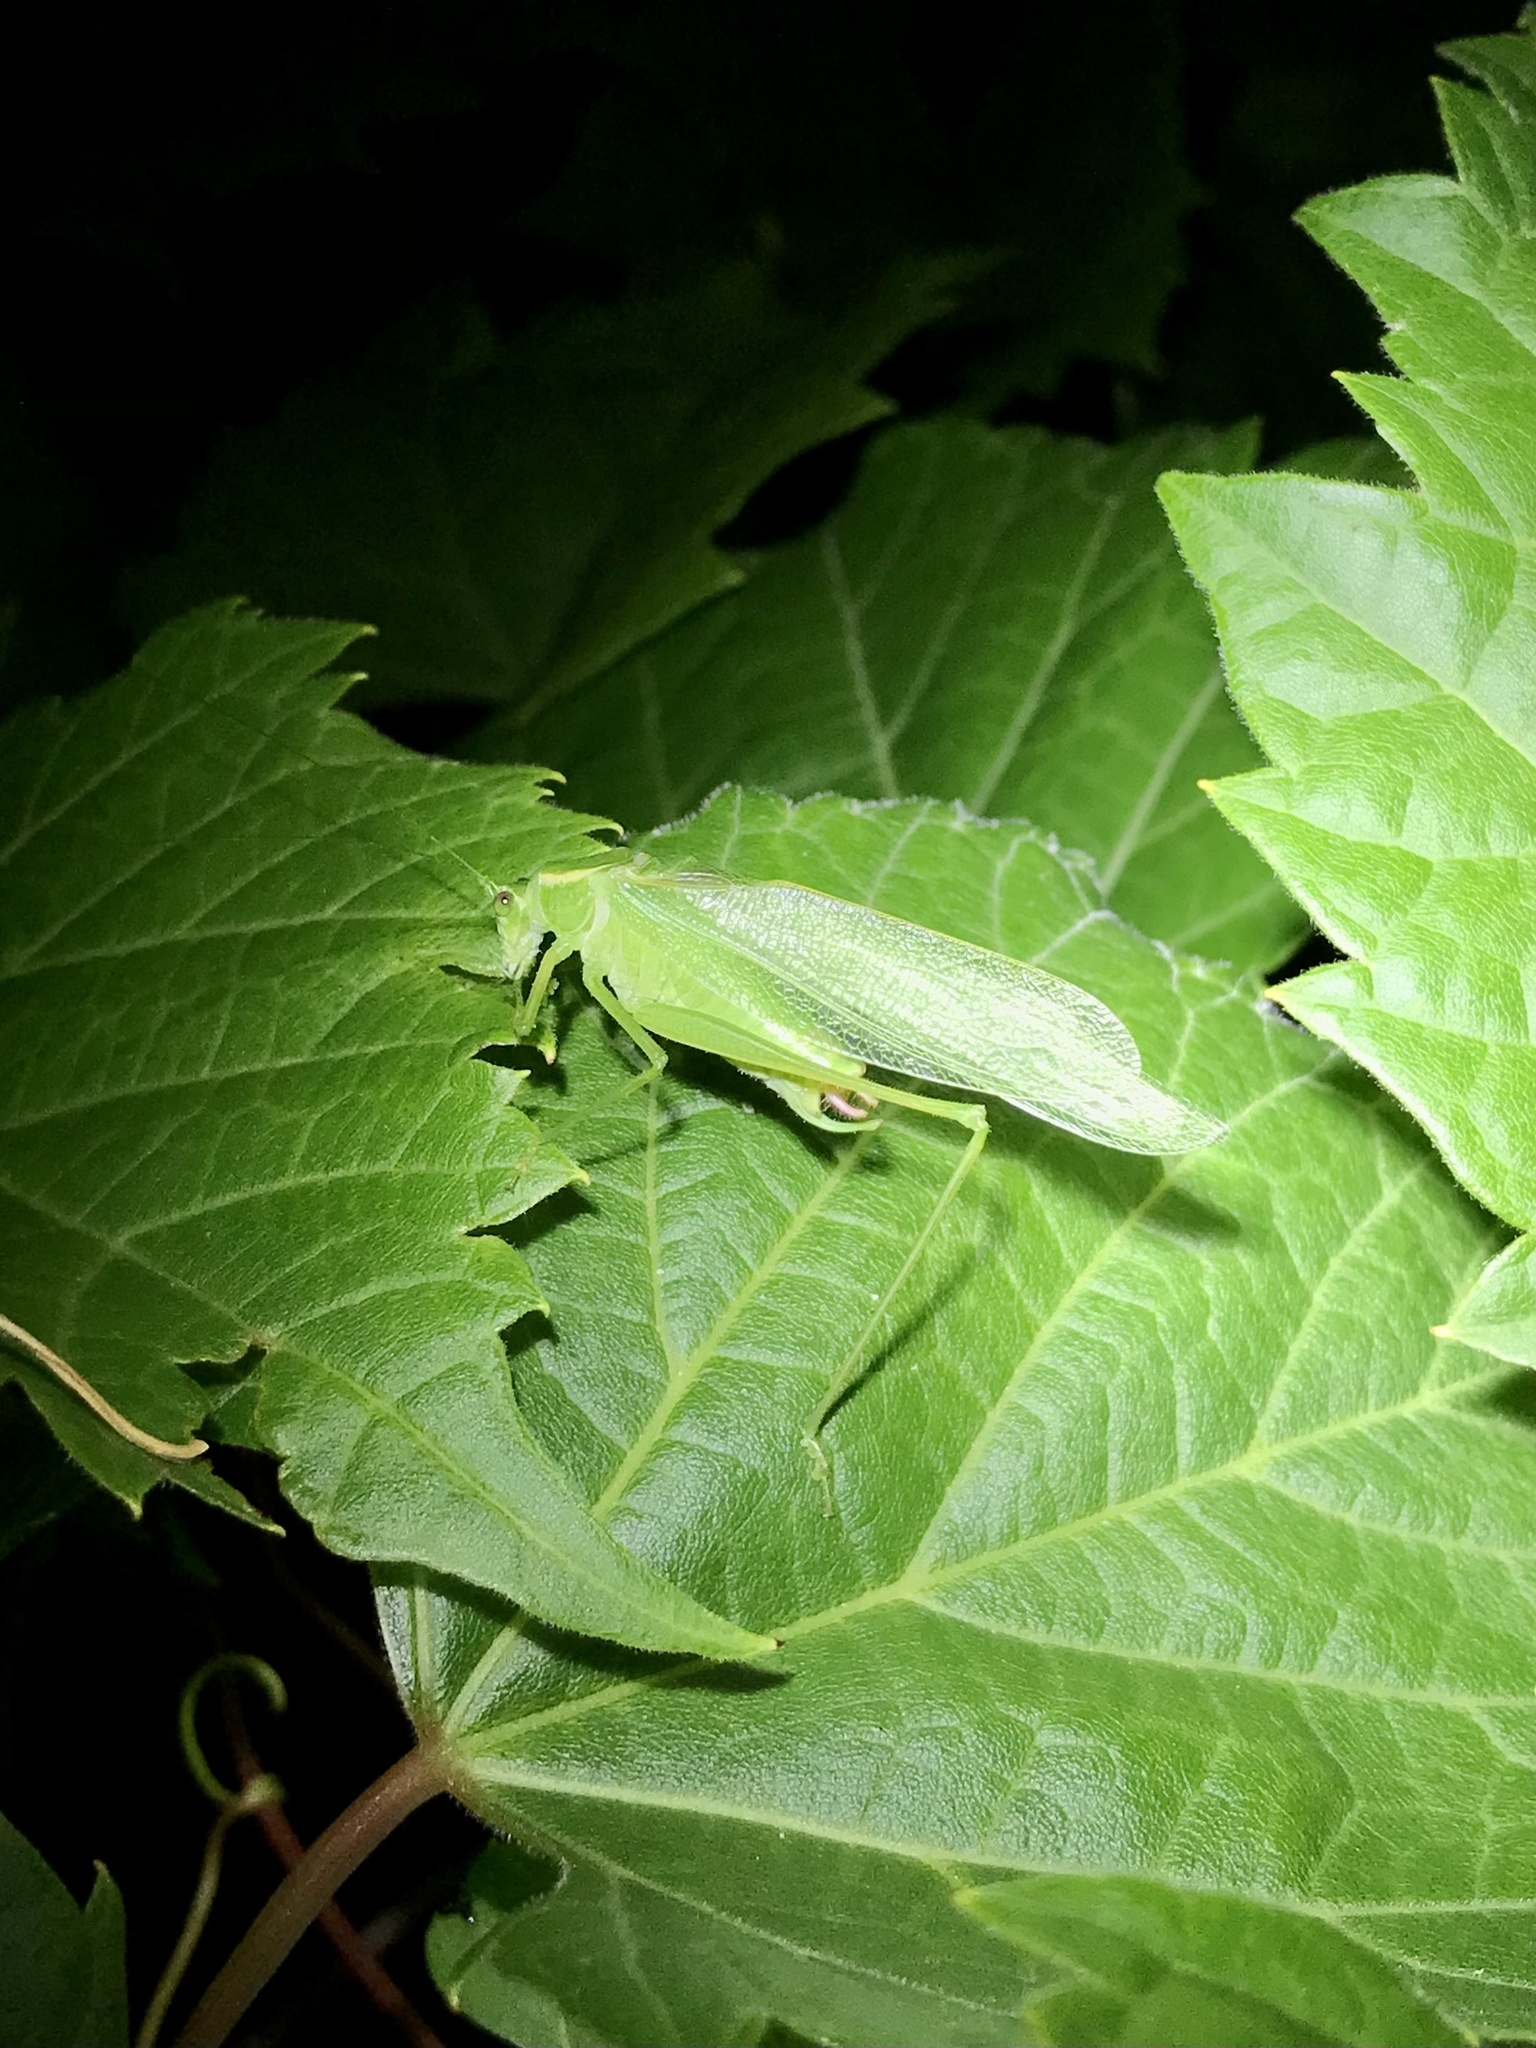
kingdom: Animalia
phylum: Arthropoda
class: Insecta
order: Orthoptera
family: Tettigoniidae
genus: Scudderia
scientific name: Scudderia septentrionalis
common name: Northern bush-katydid
